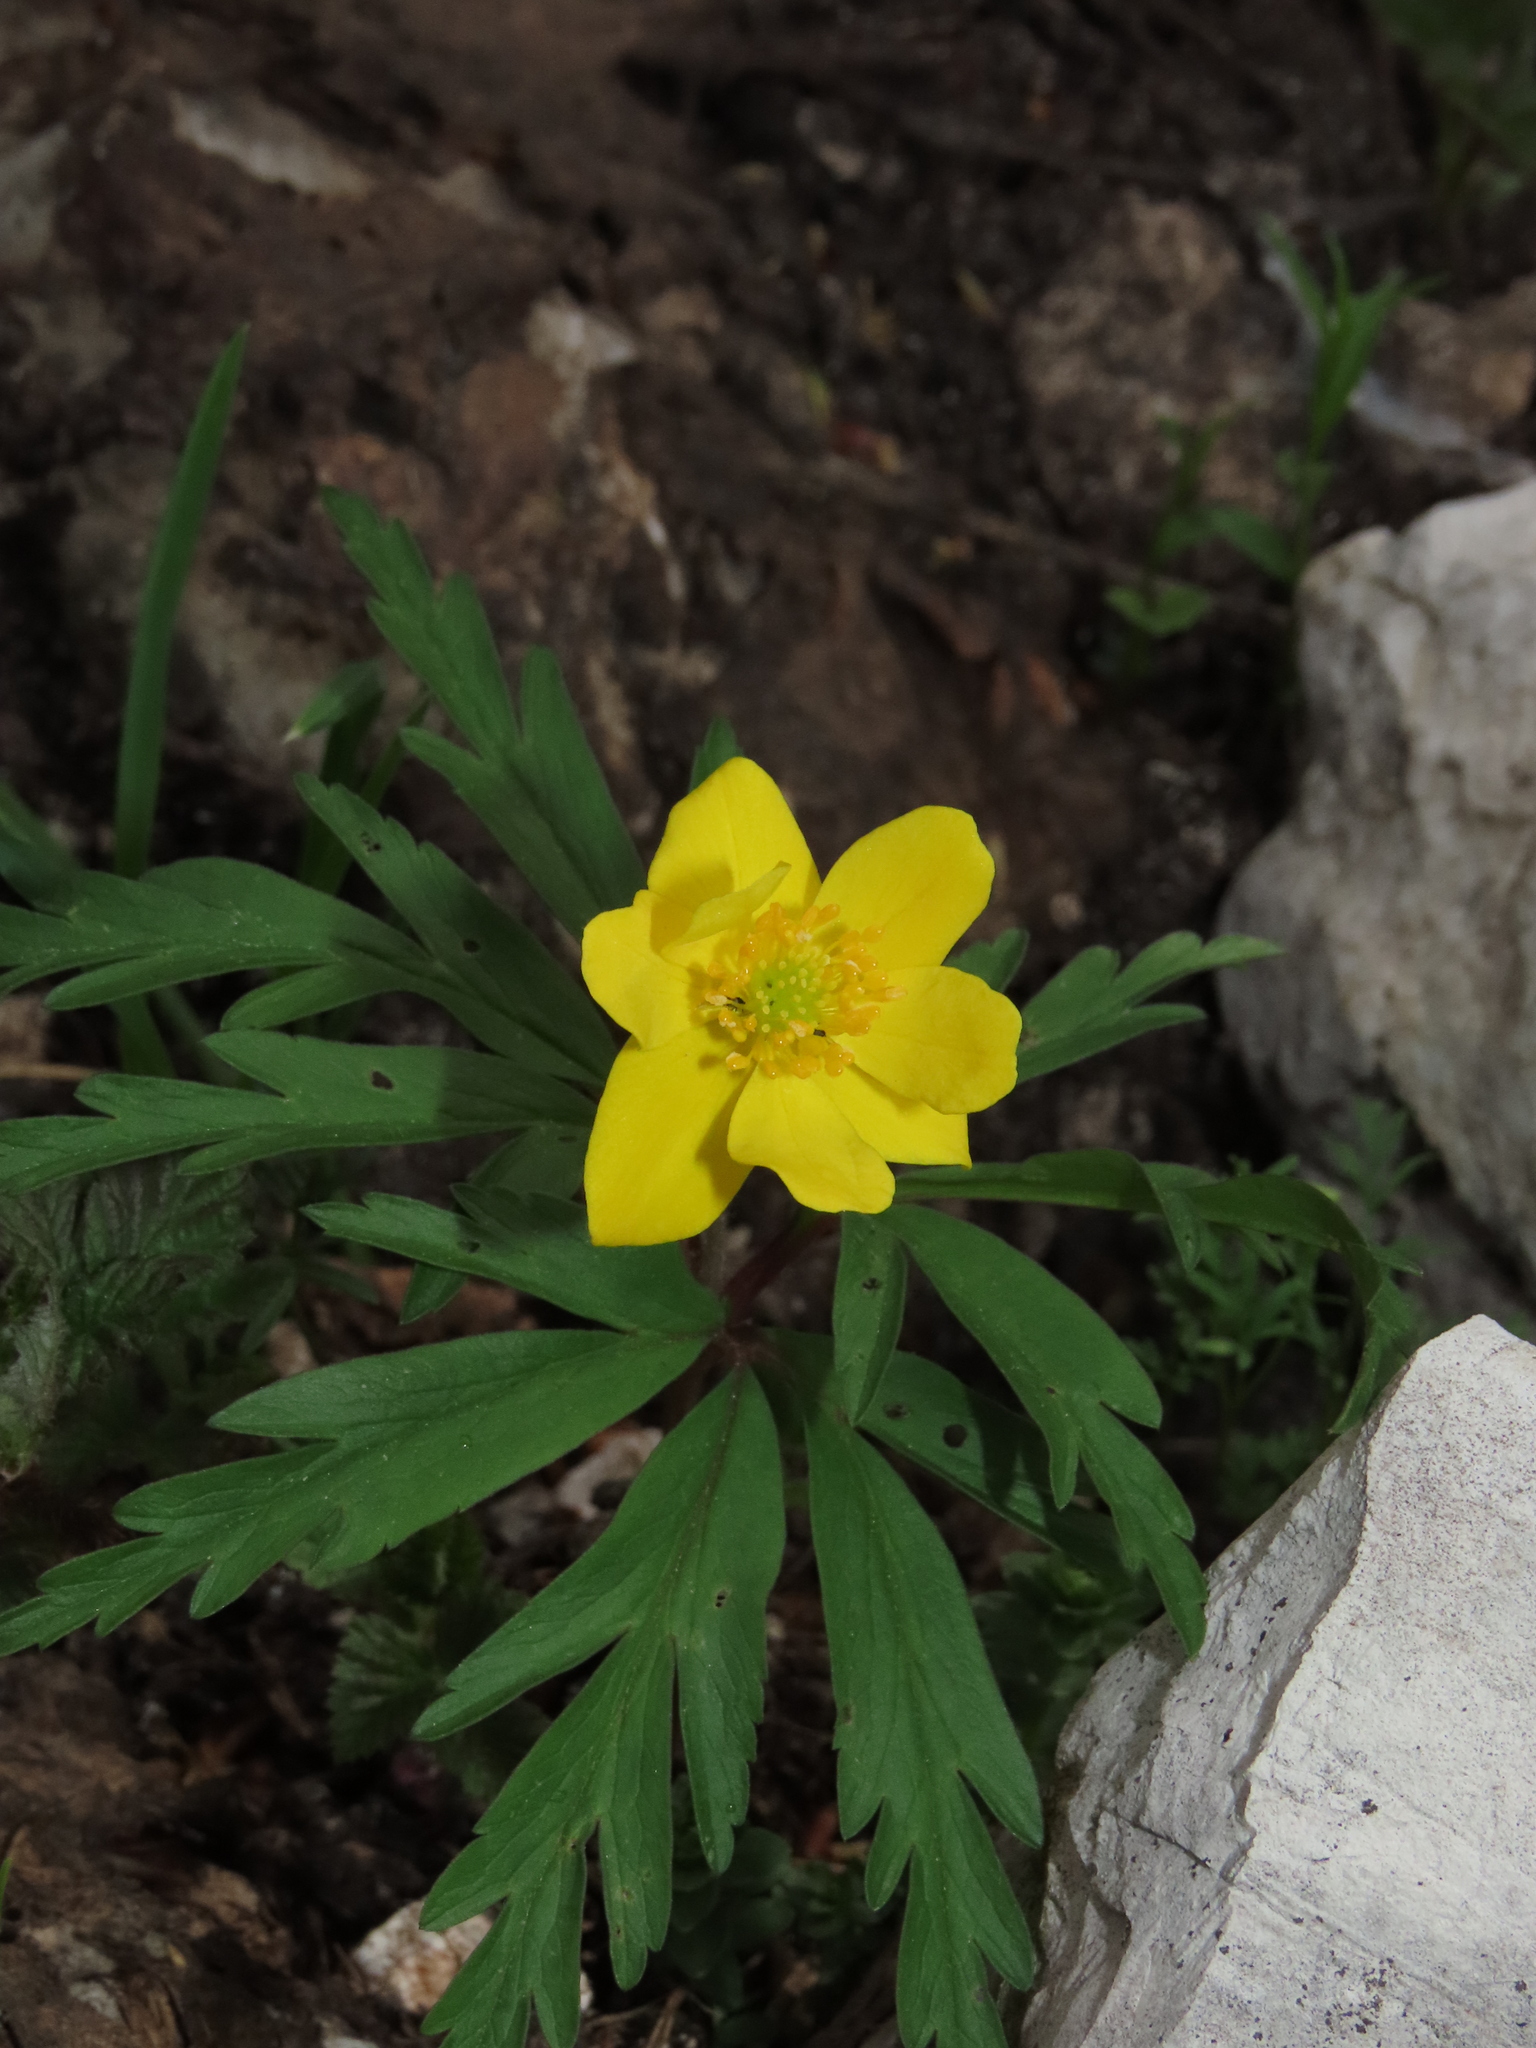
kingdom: Plantae
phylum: Tracheophyta
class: Magnoliopsida
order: Ranunculales
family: Ranunculaceae
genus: Anemone
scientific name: Anemone ranunculoides
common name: Yellow anemone
